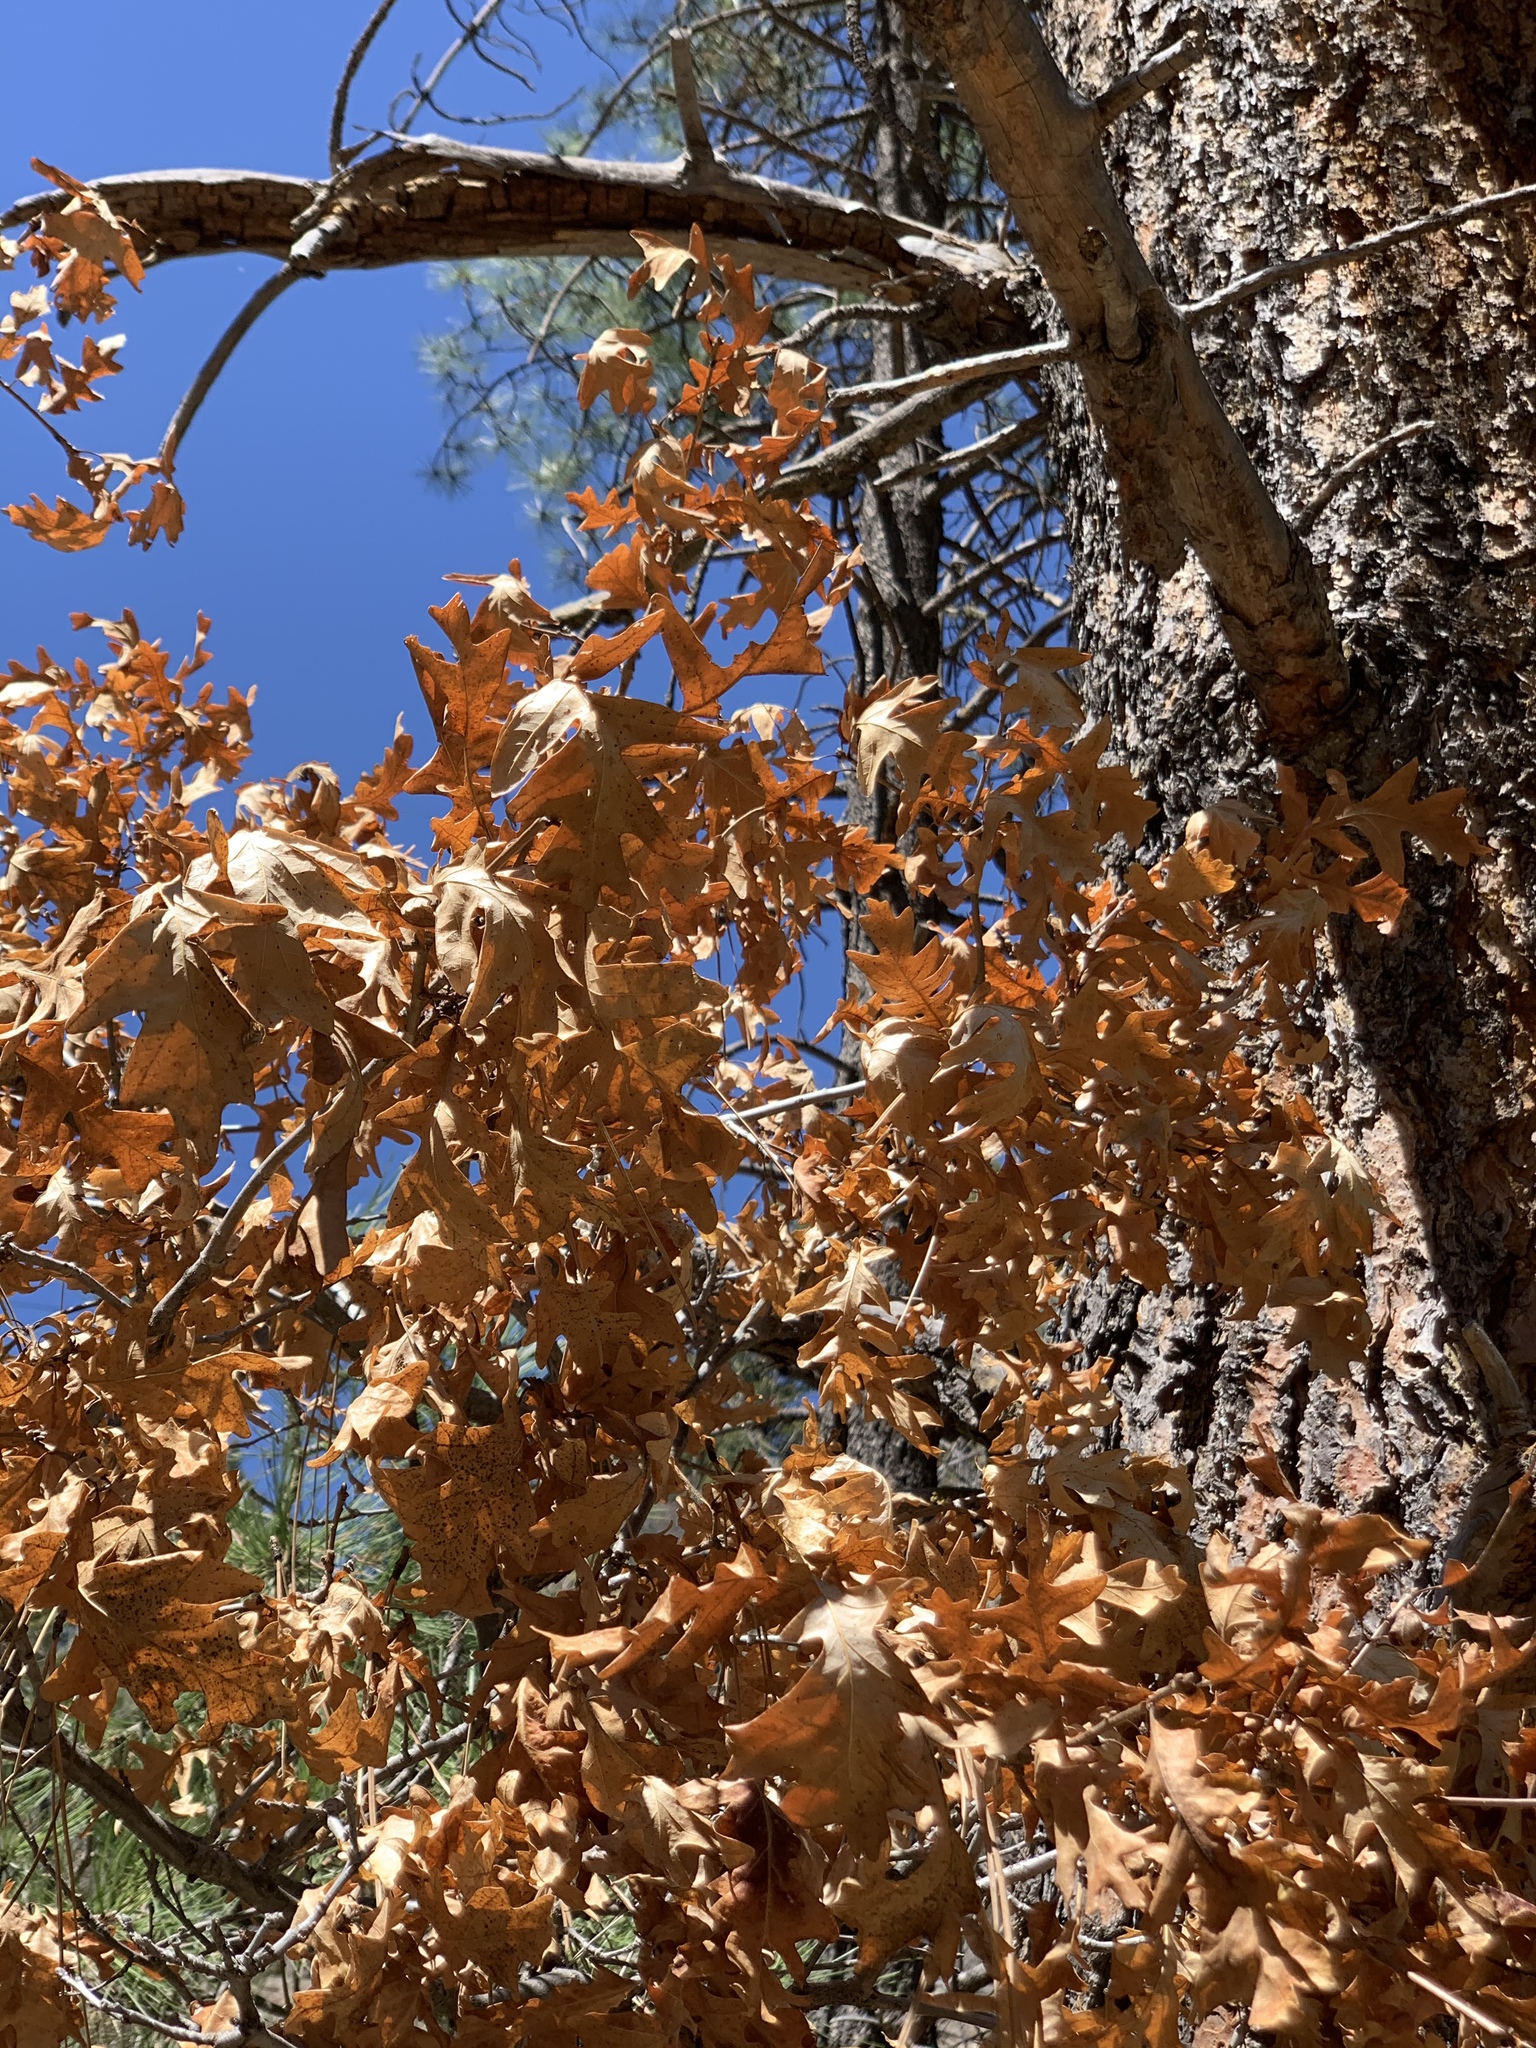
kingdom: Plantae
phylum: Tracheophyta
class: Magnoliopsida
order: Fagales
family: Fagaceae
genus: Quercus
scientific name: Quercus gambelii
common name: Gambel oak
